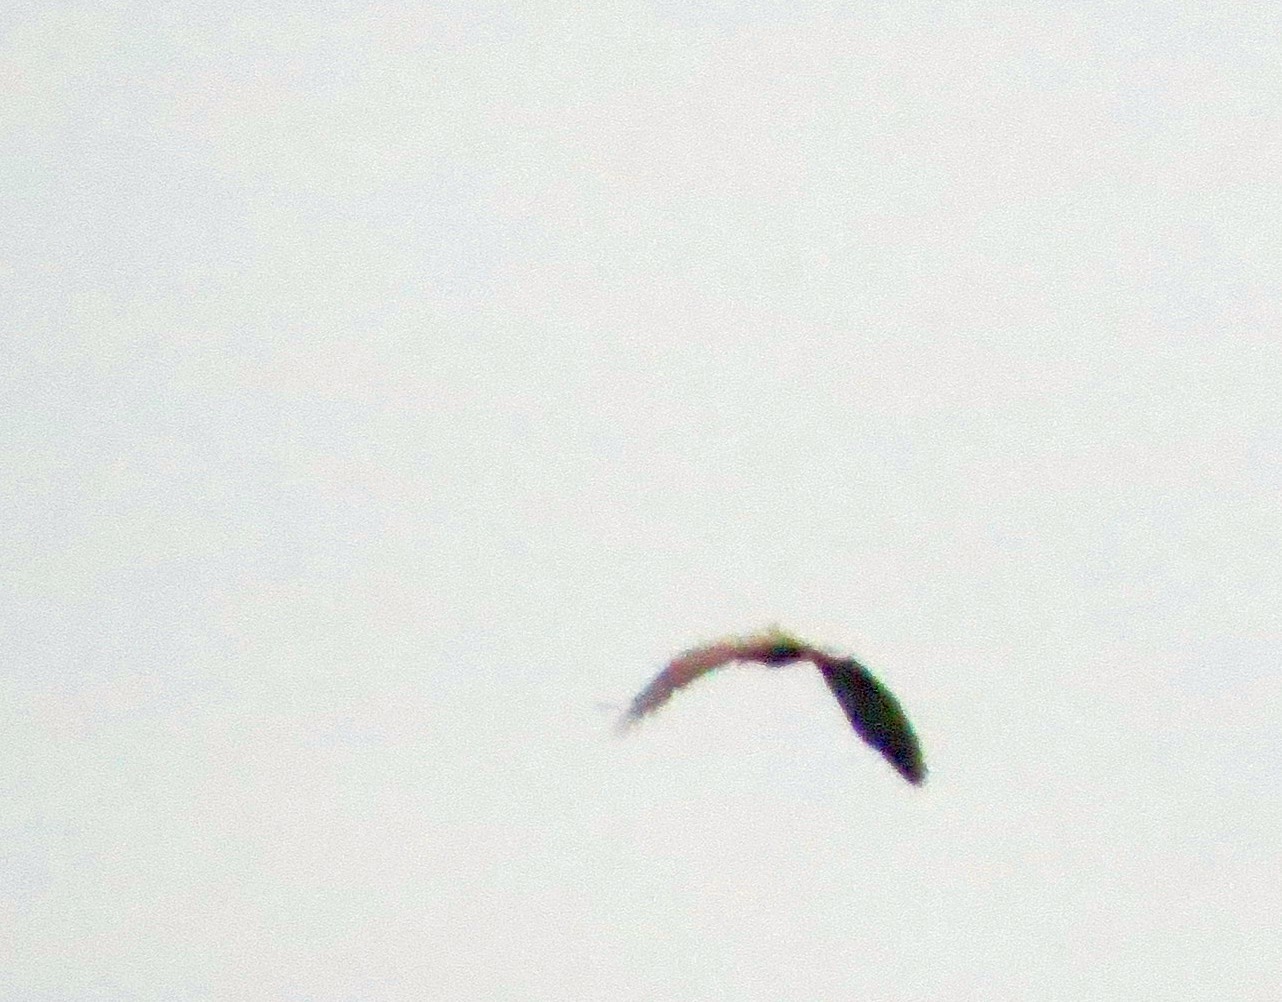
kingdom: Animalia
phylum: Chordata
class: Aves
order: Accipitriformes
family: Accipitridae
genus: Haliaeetus
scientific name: Haliaeetus albicilla
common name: White-tailed eagle
